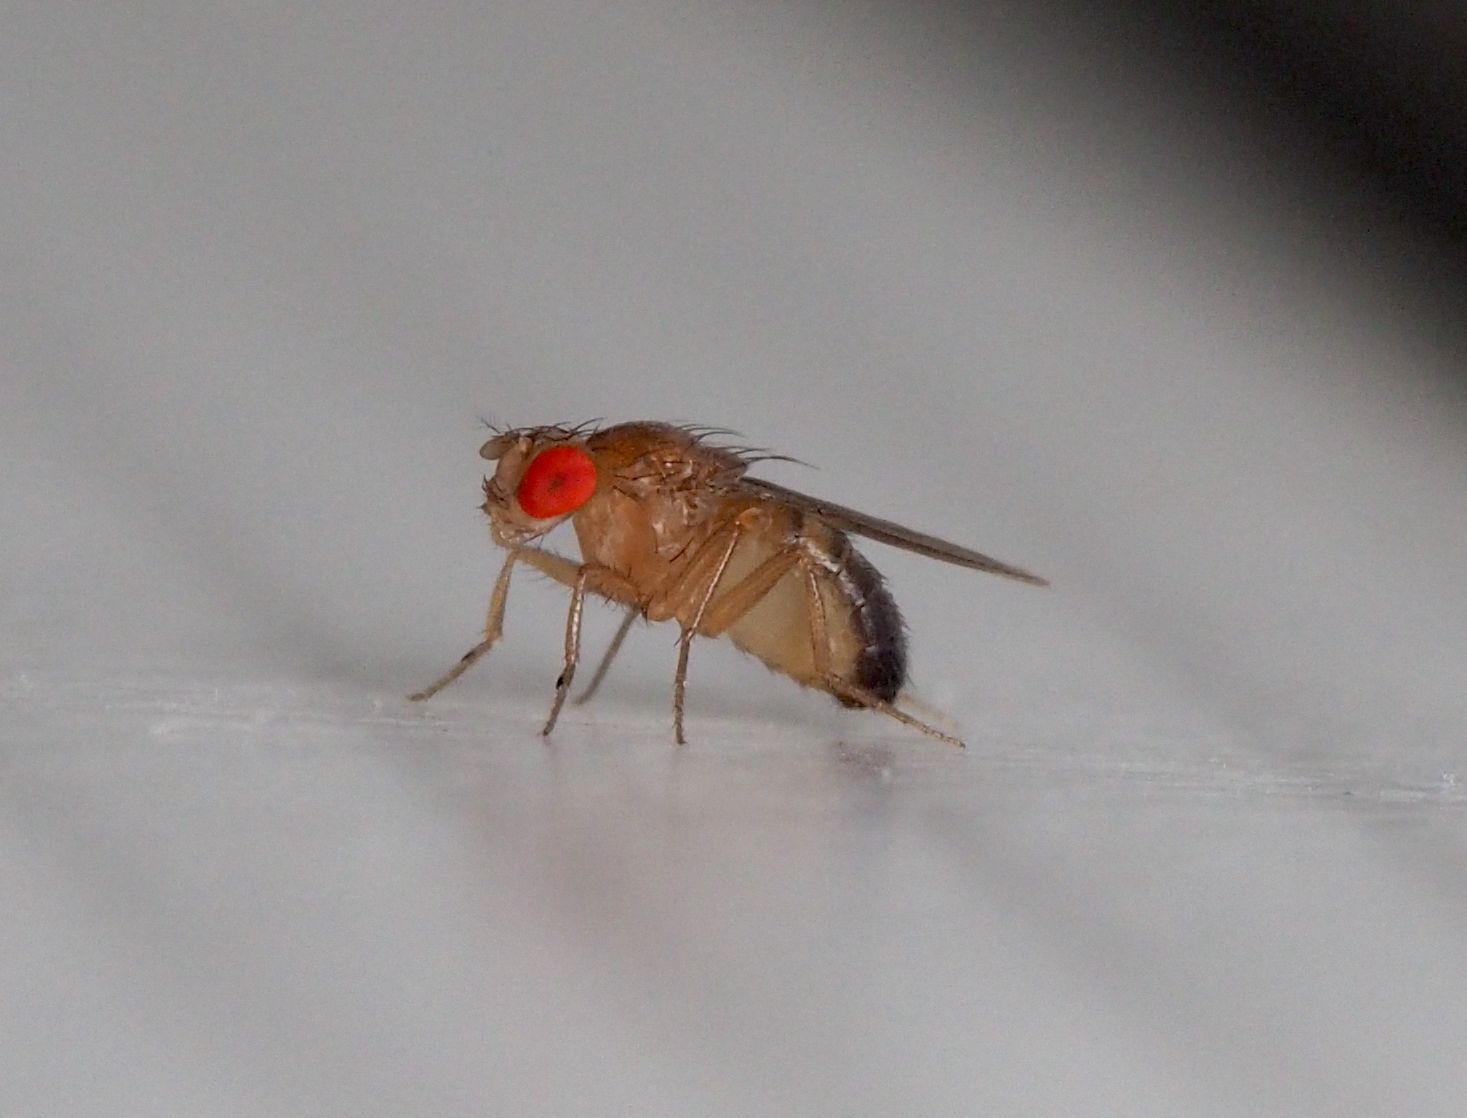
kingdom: Animalia
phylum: Arthropoda
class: Insecta
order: Diptera
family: Drosophilidae
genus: Drosophila
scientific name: Drosophila melanogaster
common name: Pomace fly
